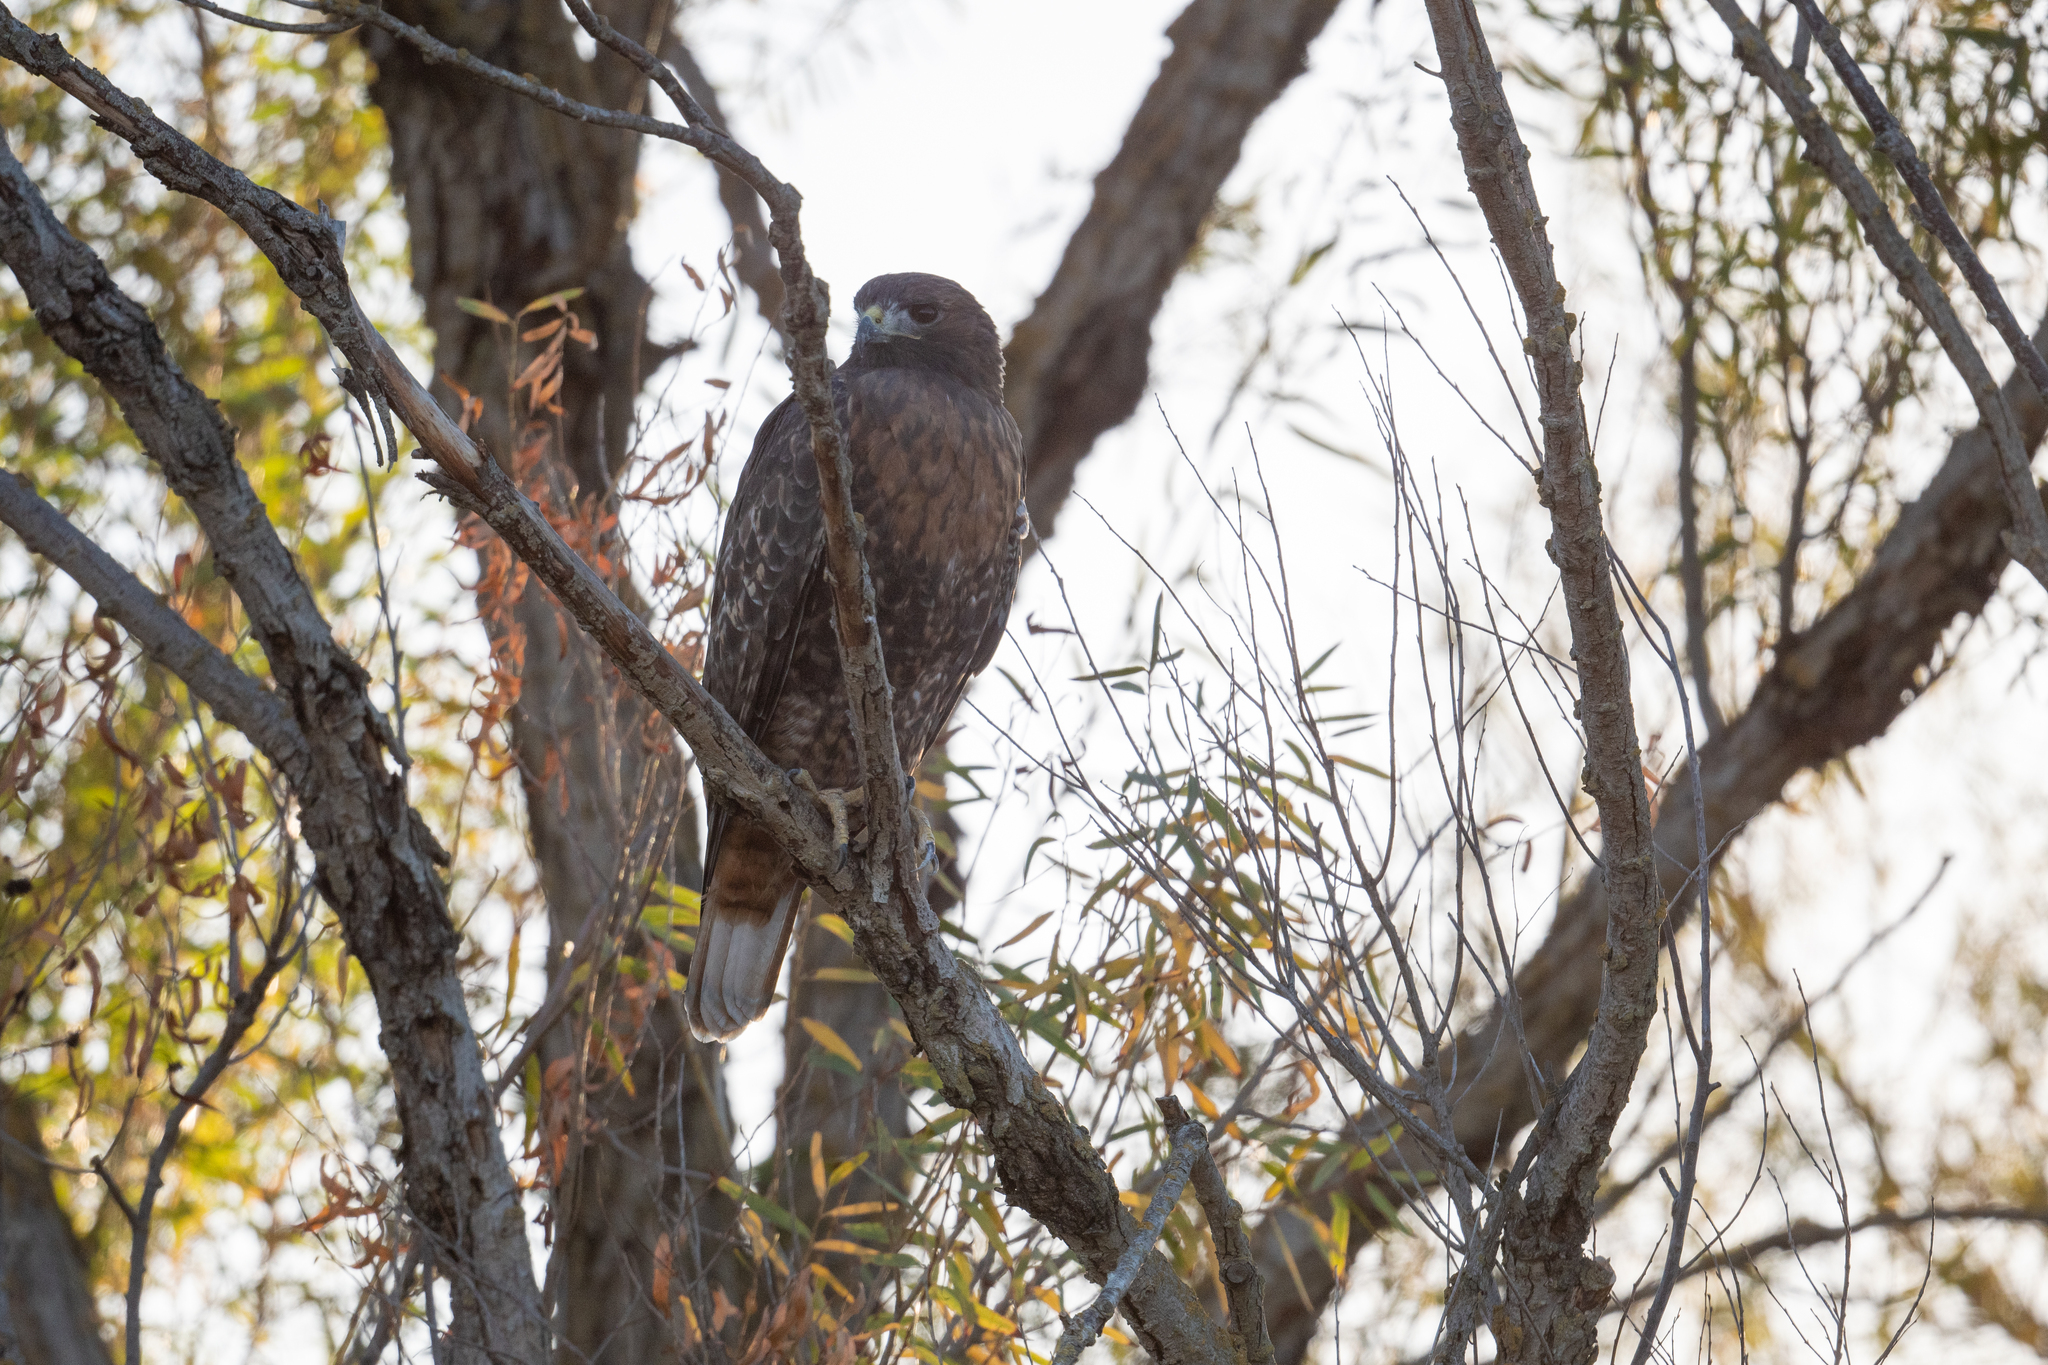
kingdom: Animalia
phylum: Chordata
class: Aves
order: Accipitriformes
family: Accipitridae
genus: Buteo
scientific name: Buteo jamaicensis
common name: Red-tailed hawk
